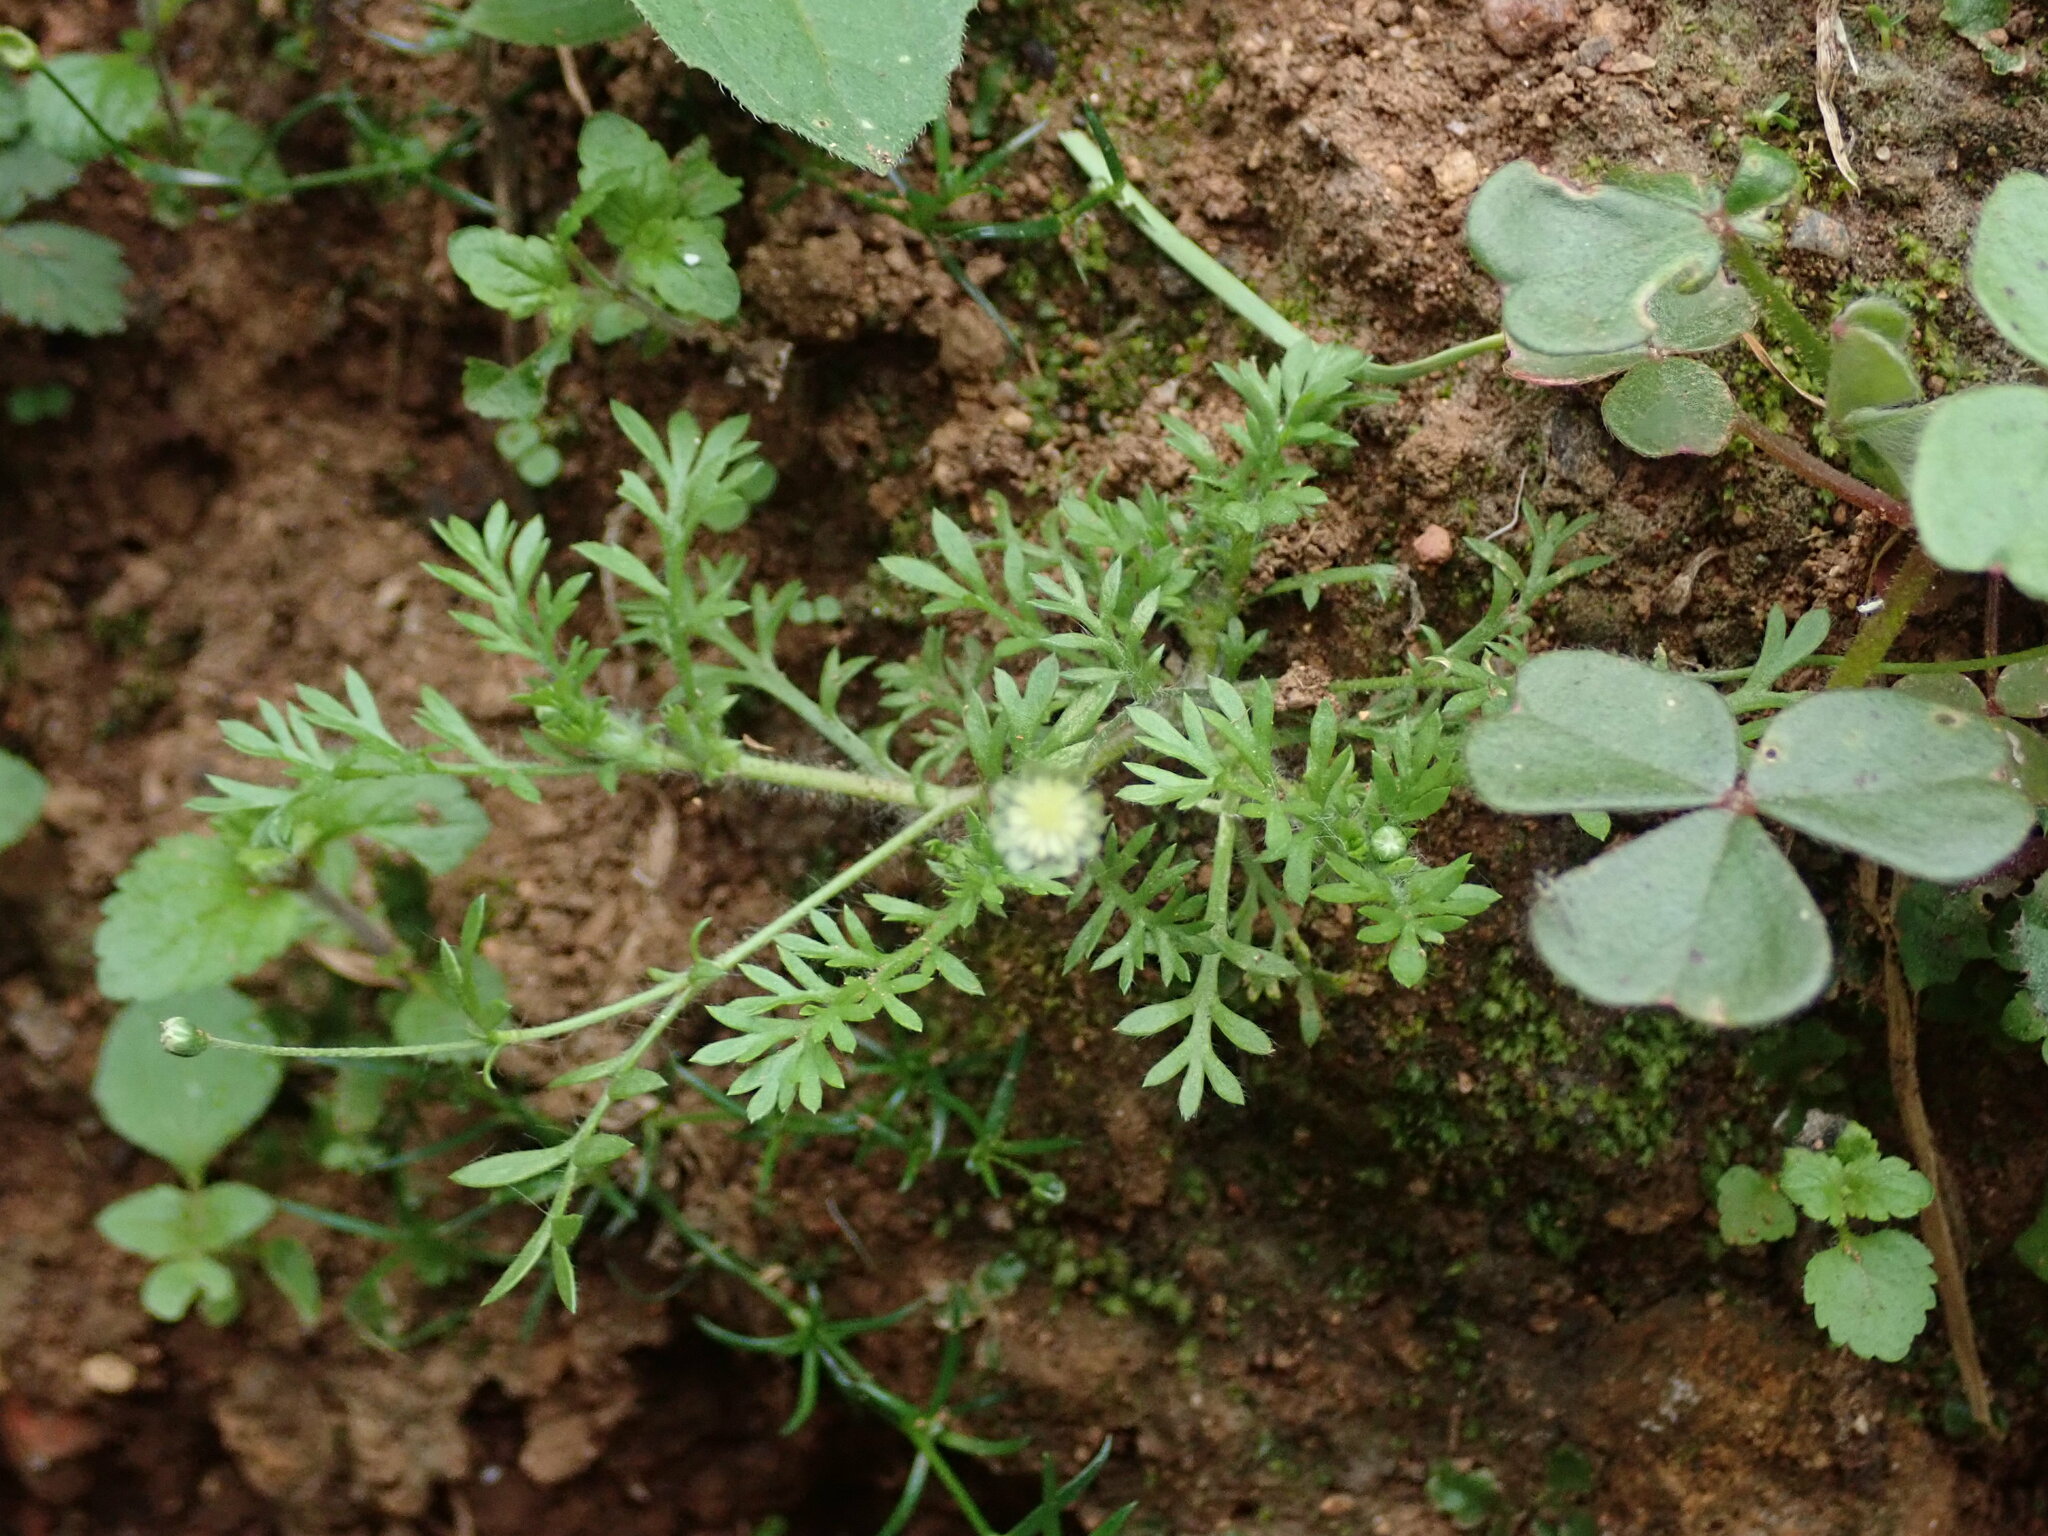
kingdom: Plantae
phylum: Tracheophyta
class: Magnoliopsida
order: Asterales
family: Asteraceae
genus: Cotula
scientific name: Cotula australis
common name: Australian waterbuttons
